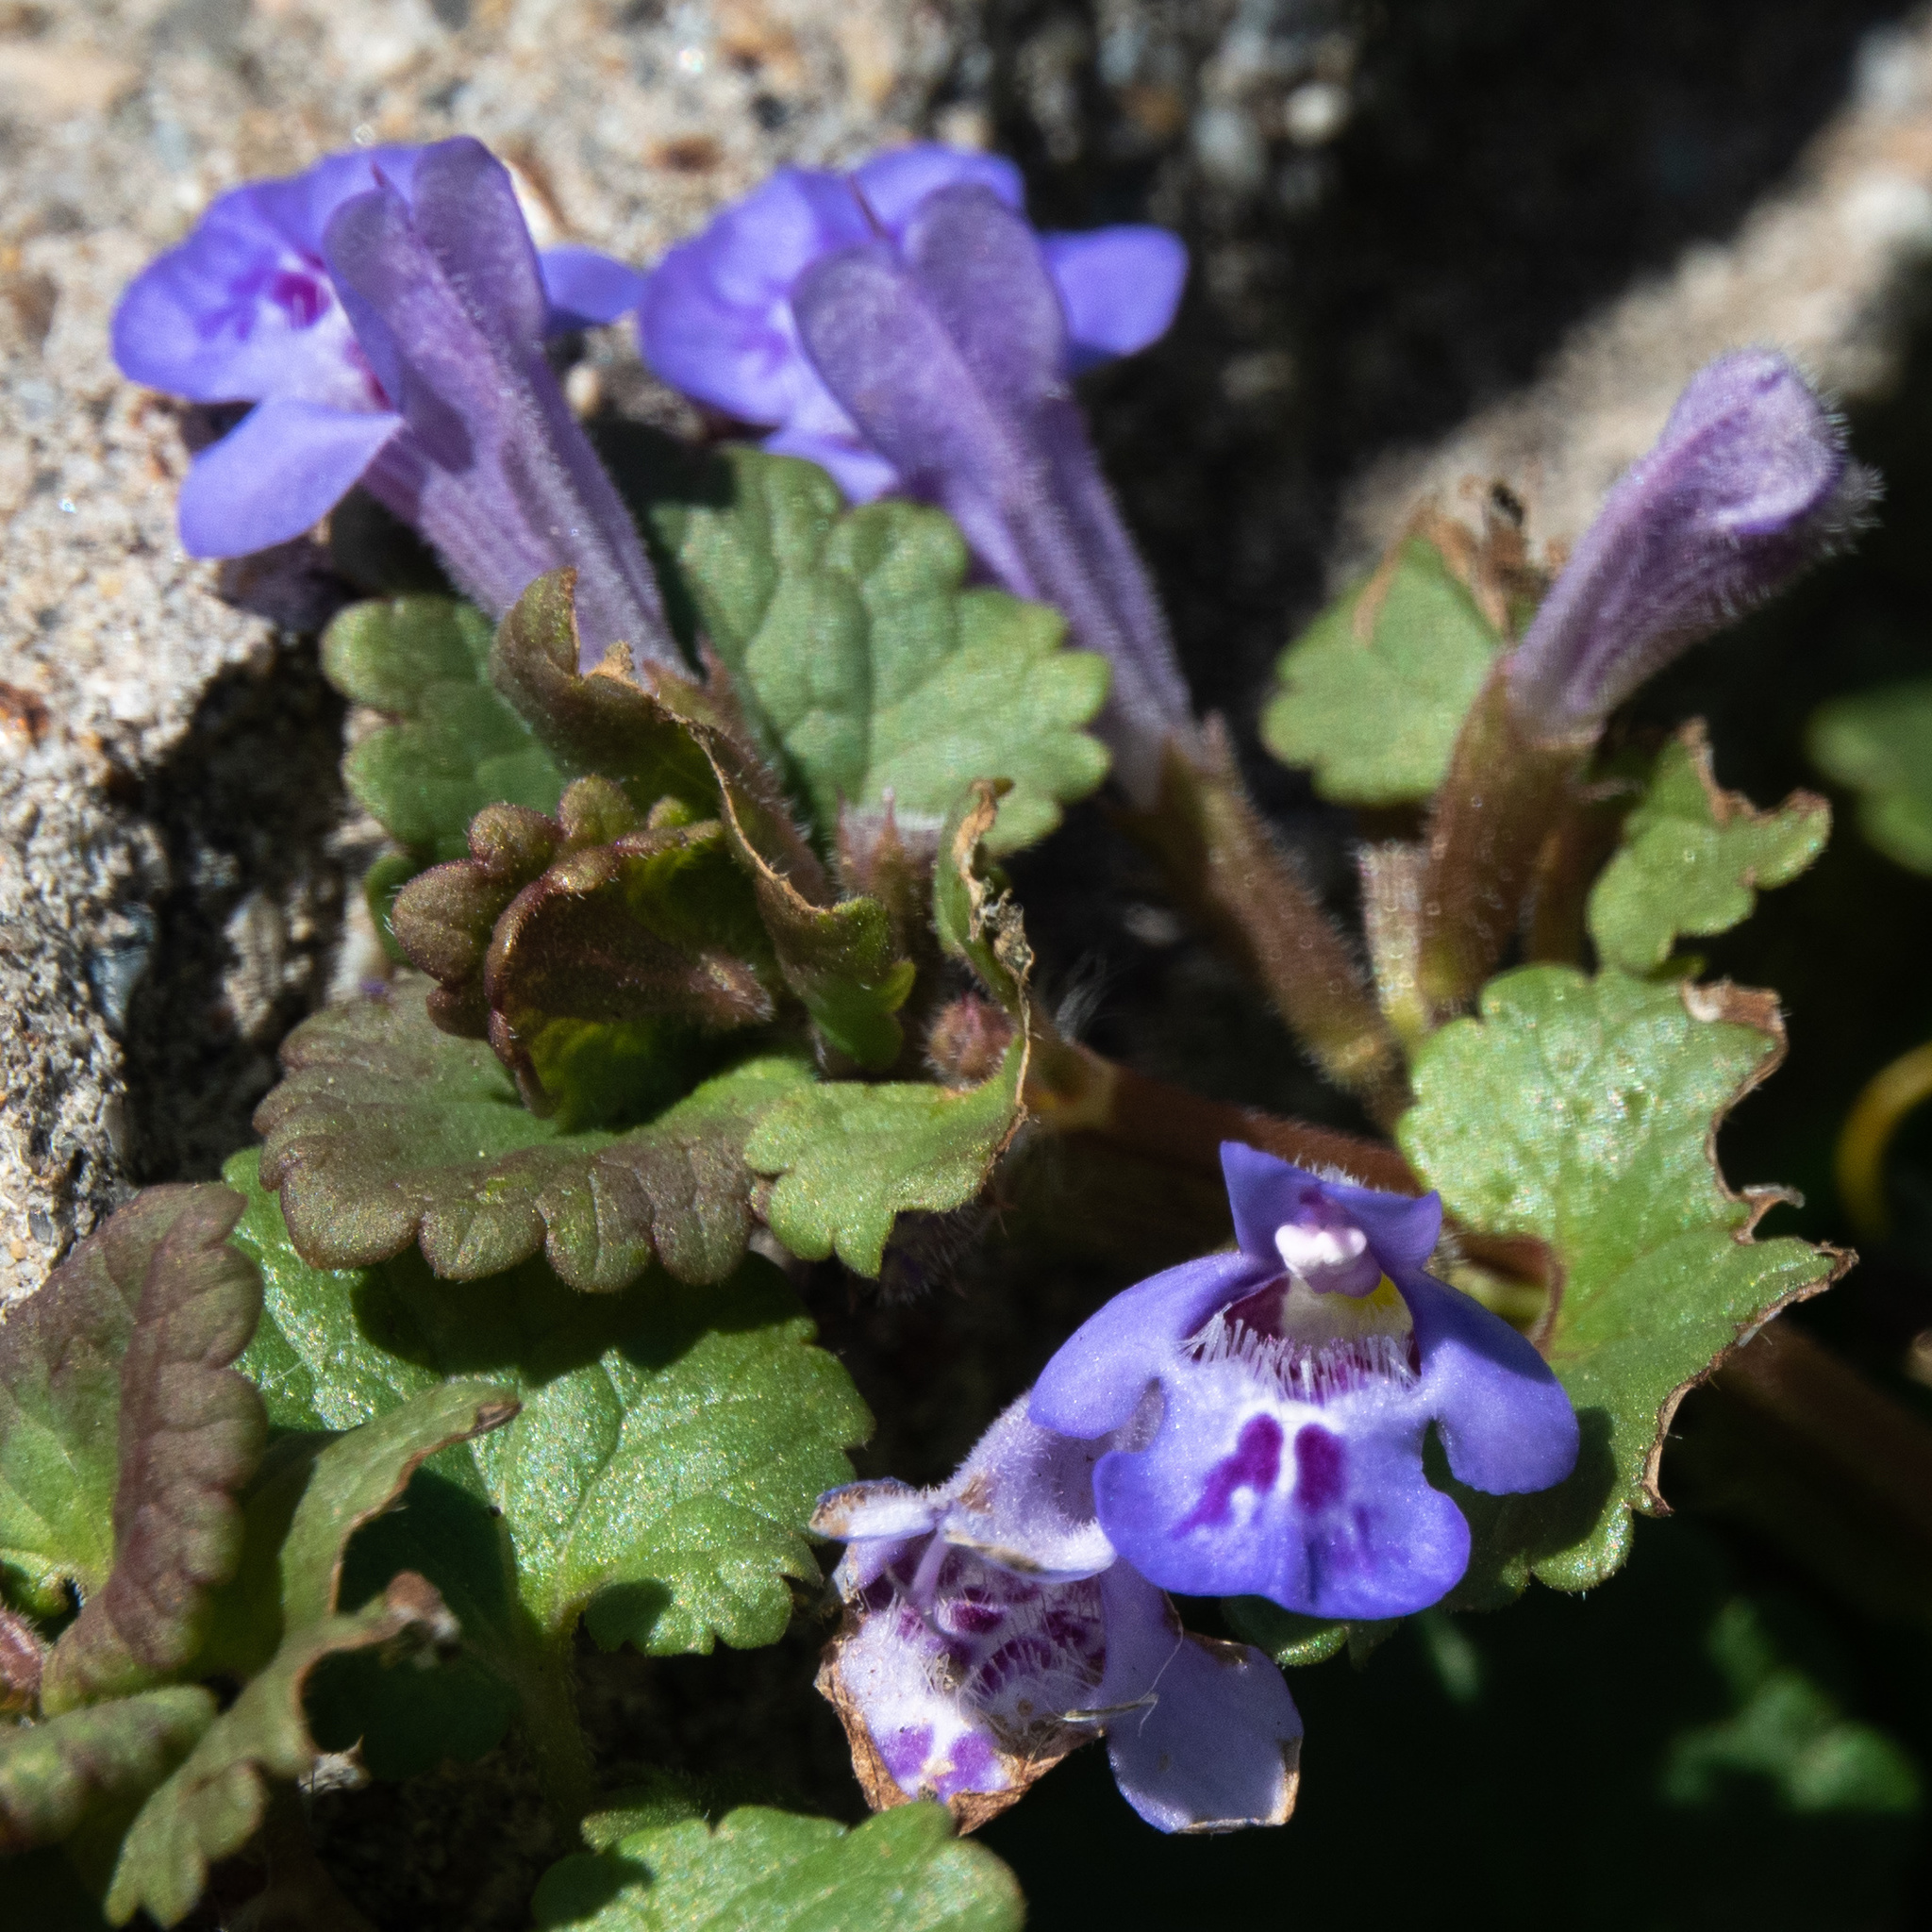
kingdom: Plantae
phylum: Tracheophyta
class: Magnoliopsida
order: Lamiales
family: Lamiaceae
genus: Glechoma
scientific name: Glechoma hederacea
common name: Ground ivy
